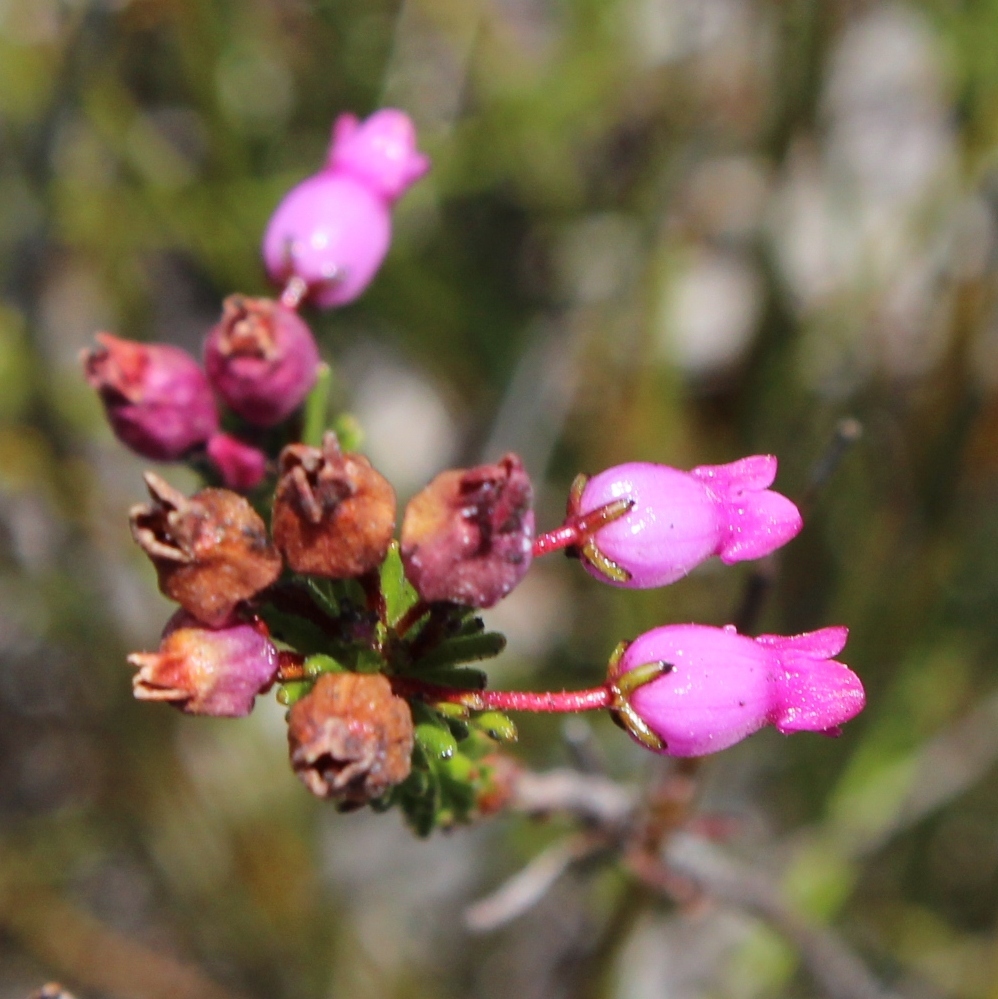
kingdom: Plantae
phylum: Tracheophyta
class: Magnoliopsida
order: Ericales
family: Ericaceae
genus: Erica
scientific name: Erica obliqua
